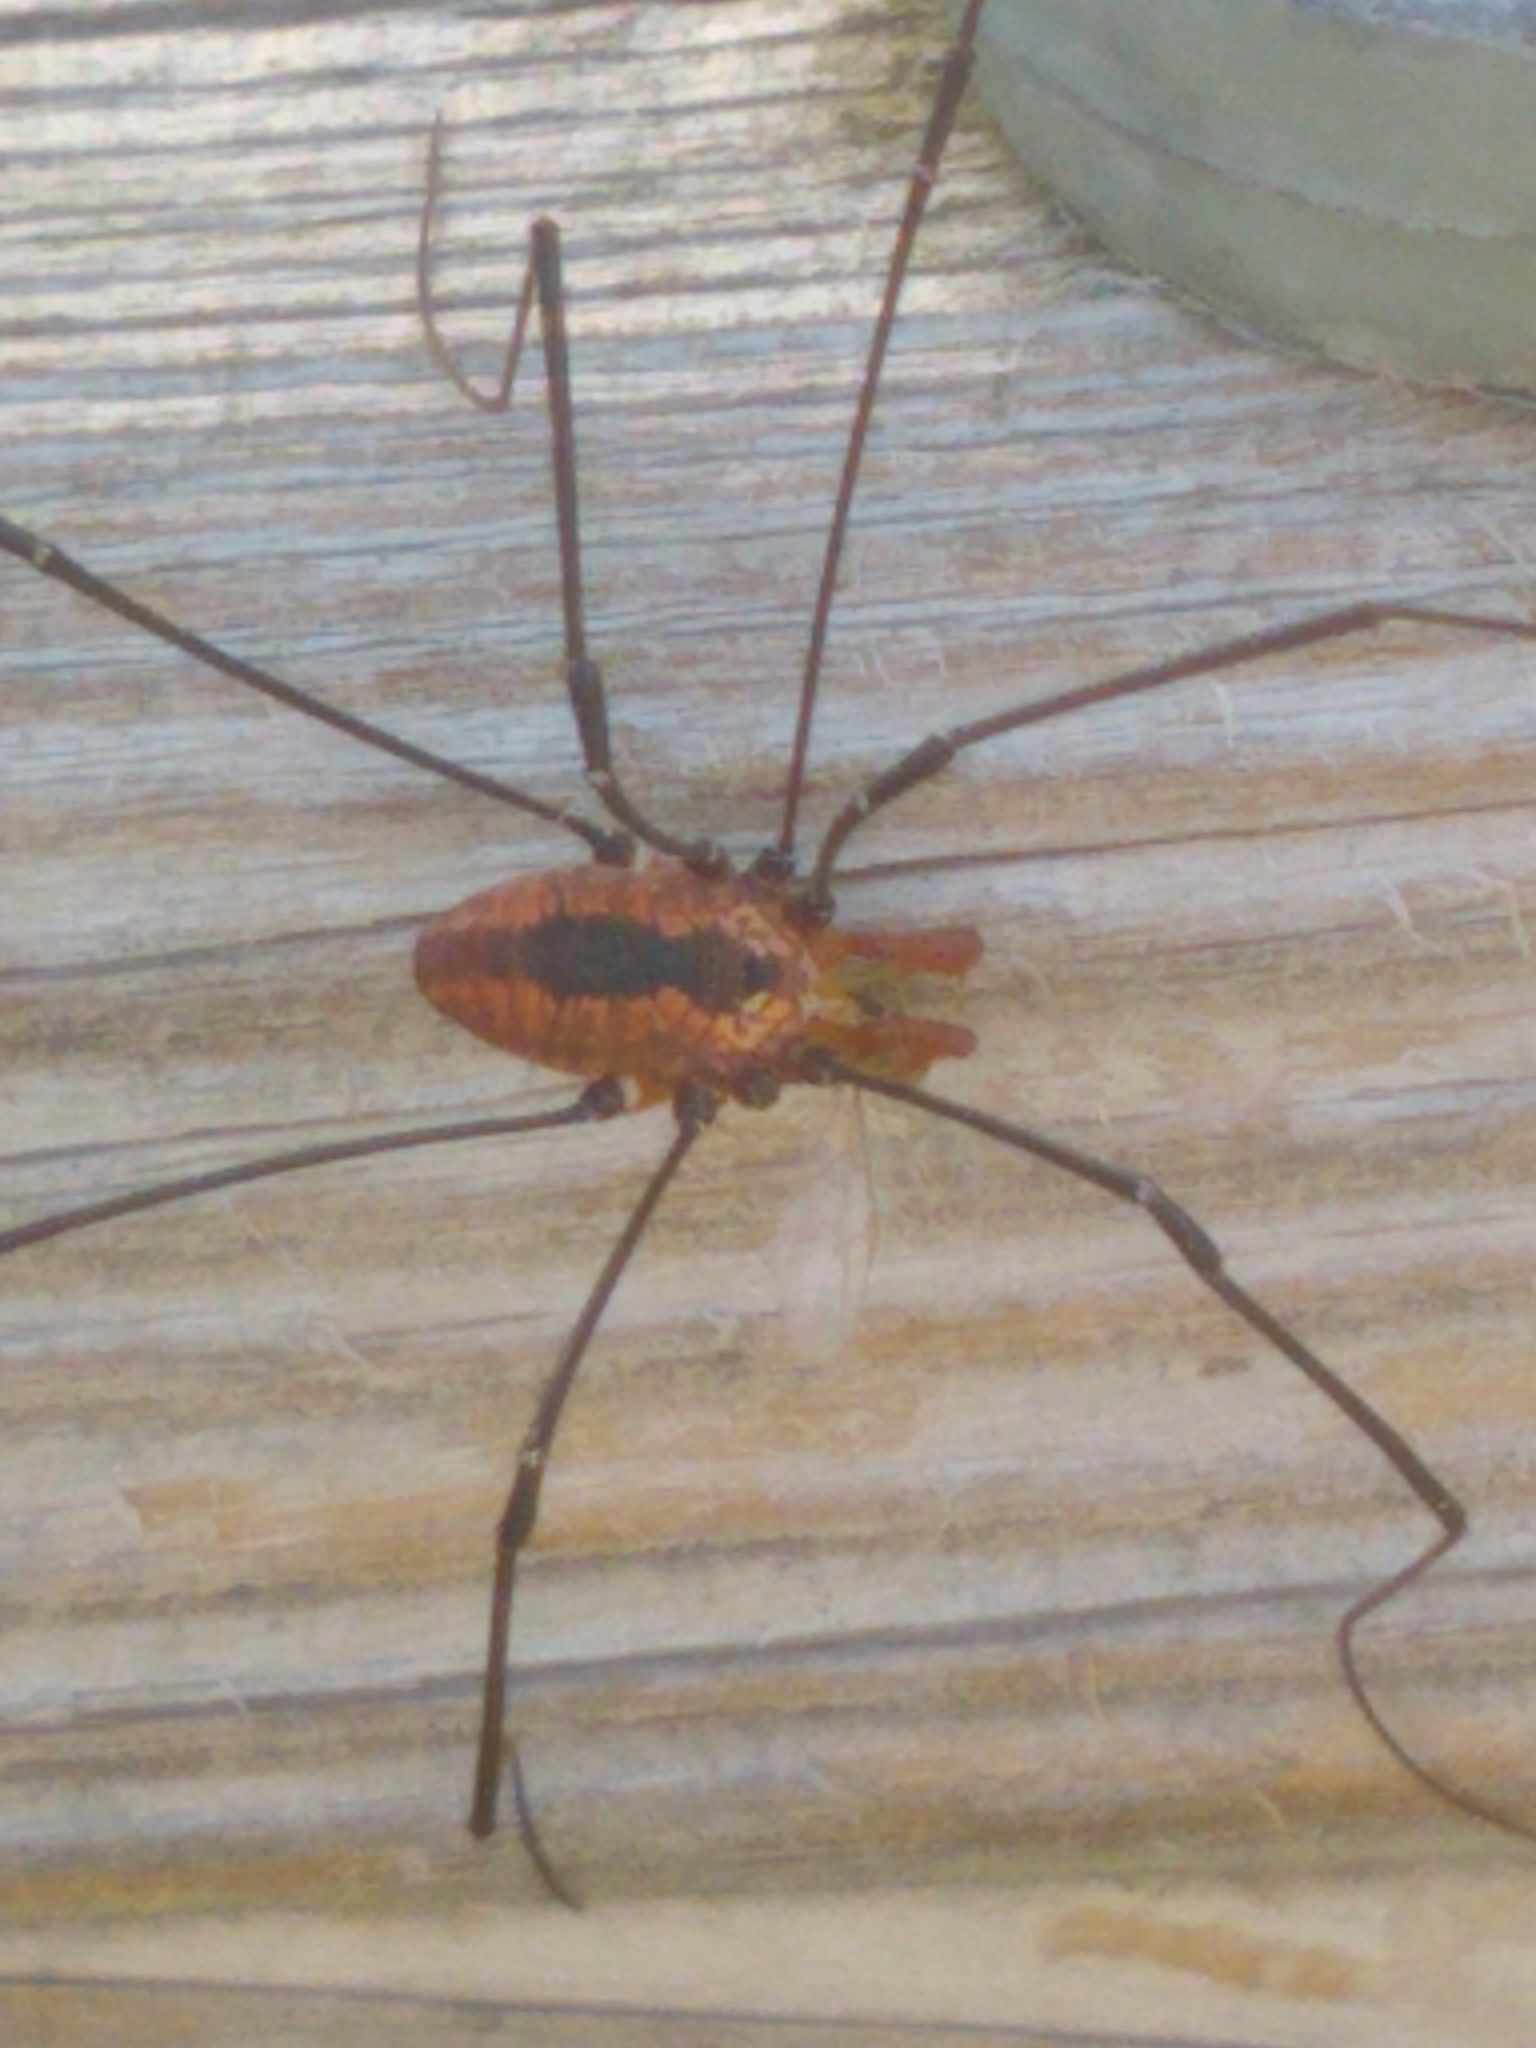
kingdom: Animalia
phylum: Arthropoda
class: Arachnida
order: Opiliones
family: Sclerosomatidae
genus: Leiobunum
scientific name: Leiobunum vittatum
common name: Eastern harvestman
